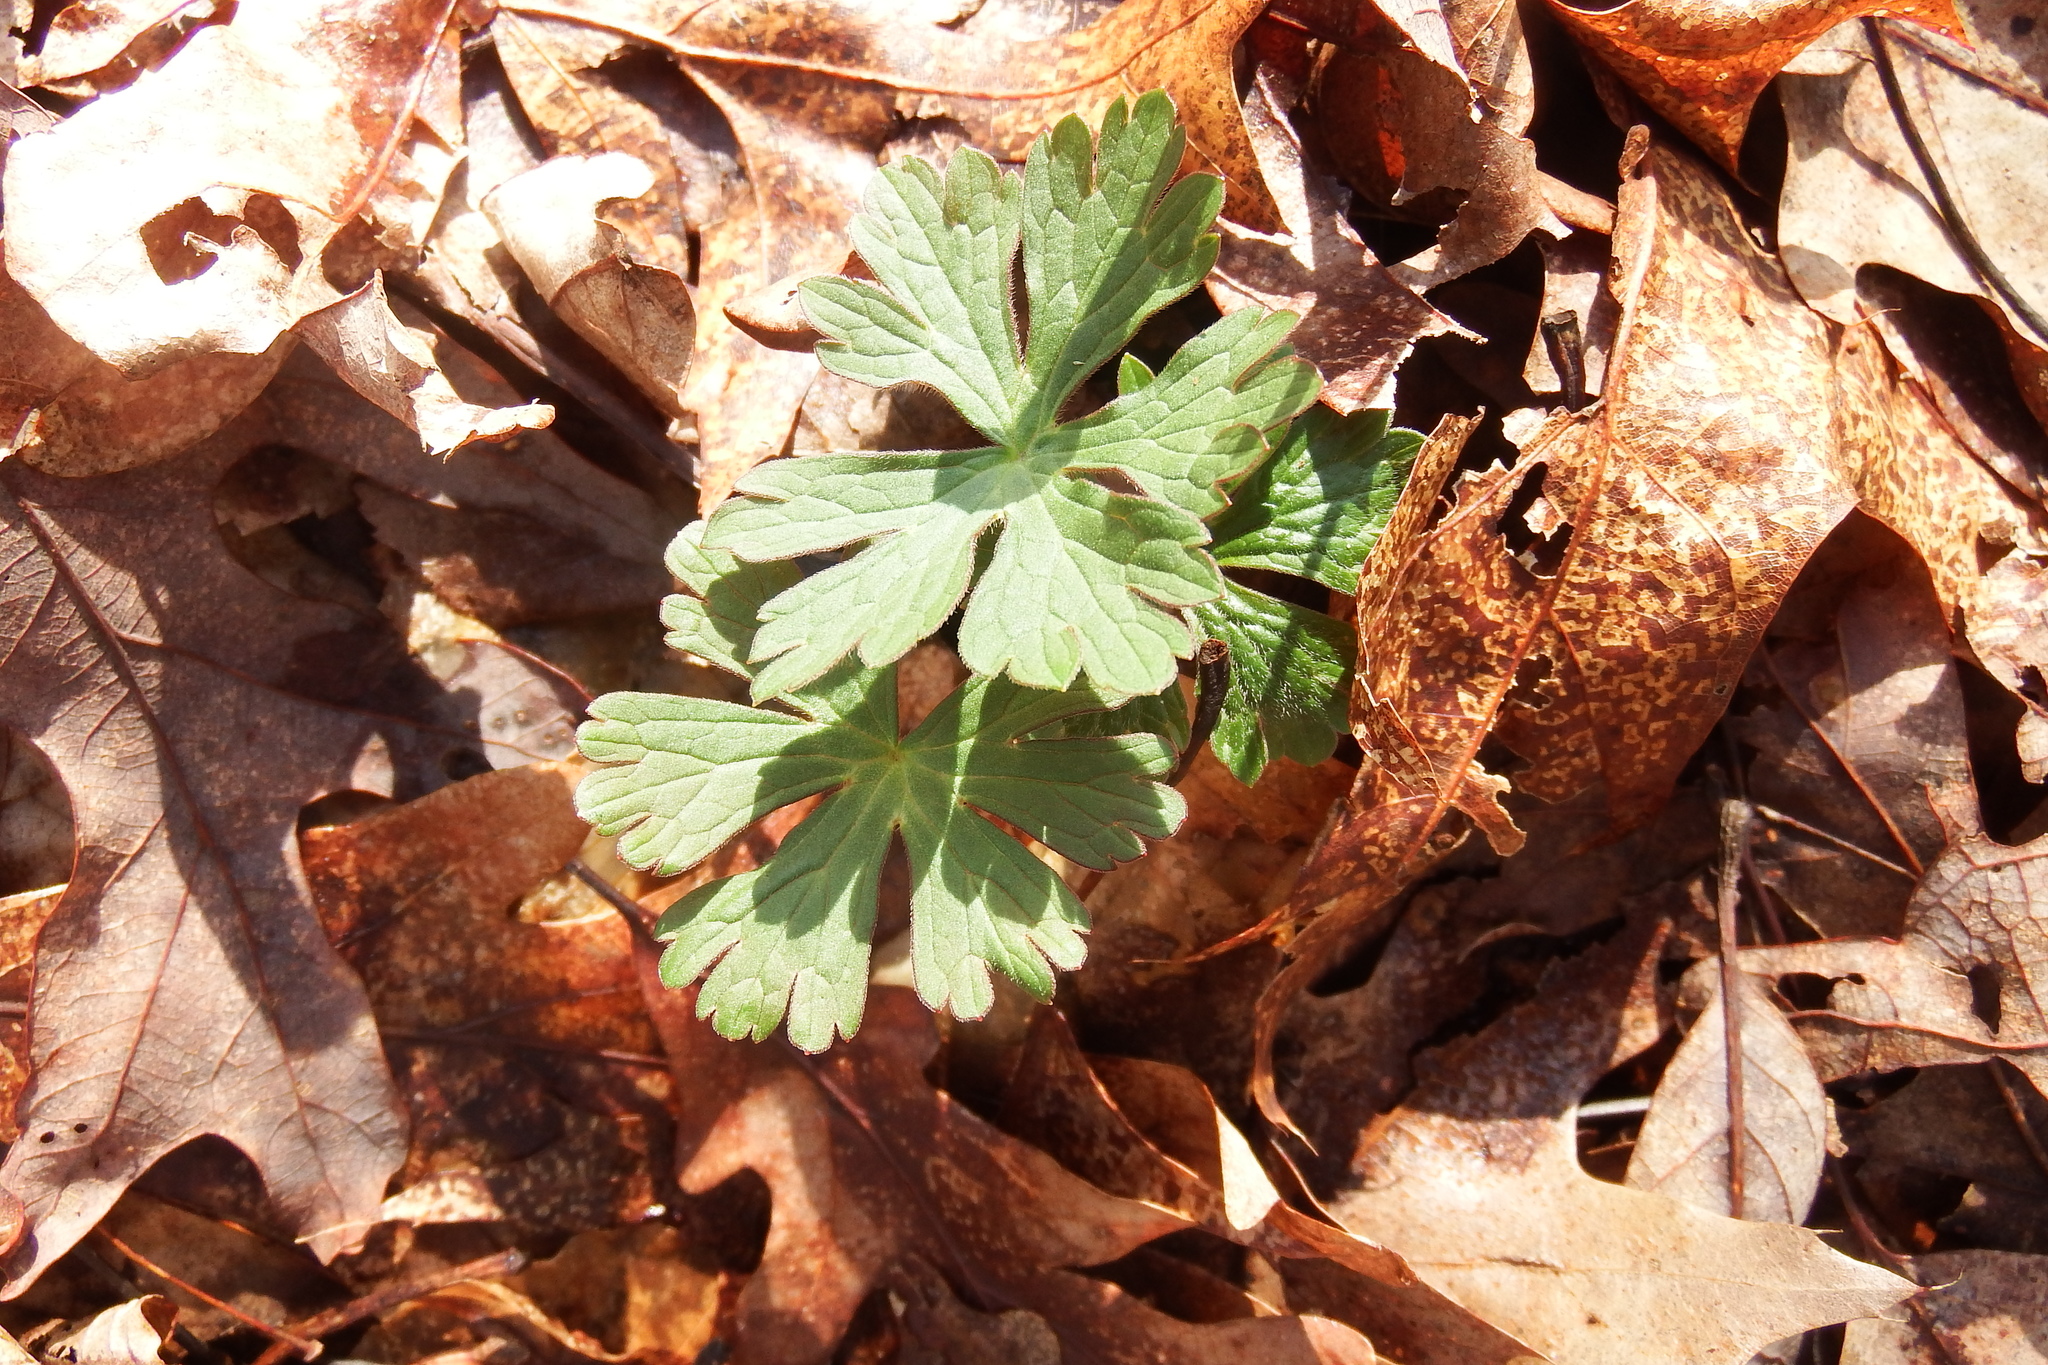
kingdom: Plantae
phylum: Tracheophyta
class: Magnoliopsida
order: Geraniales
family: Geraniaceae
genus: Geranium
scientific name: Geranium maculatum
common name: Spotted geranium
